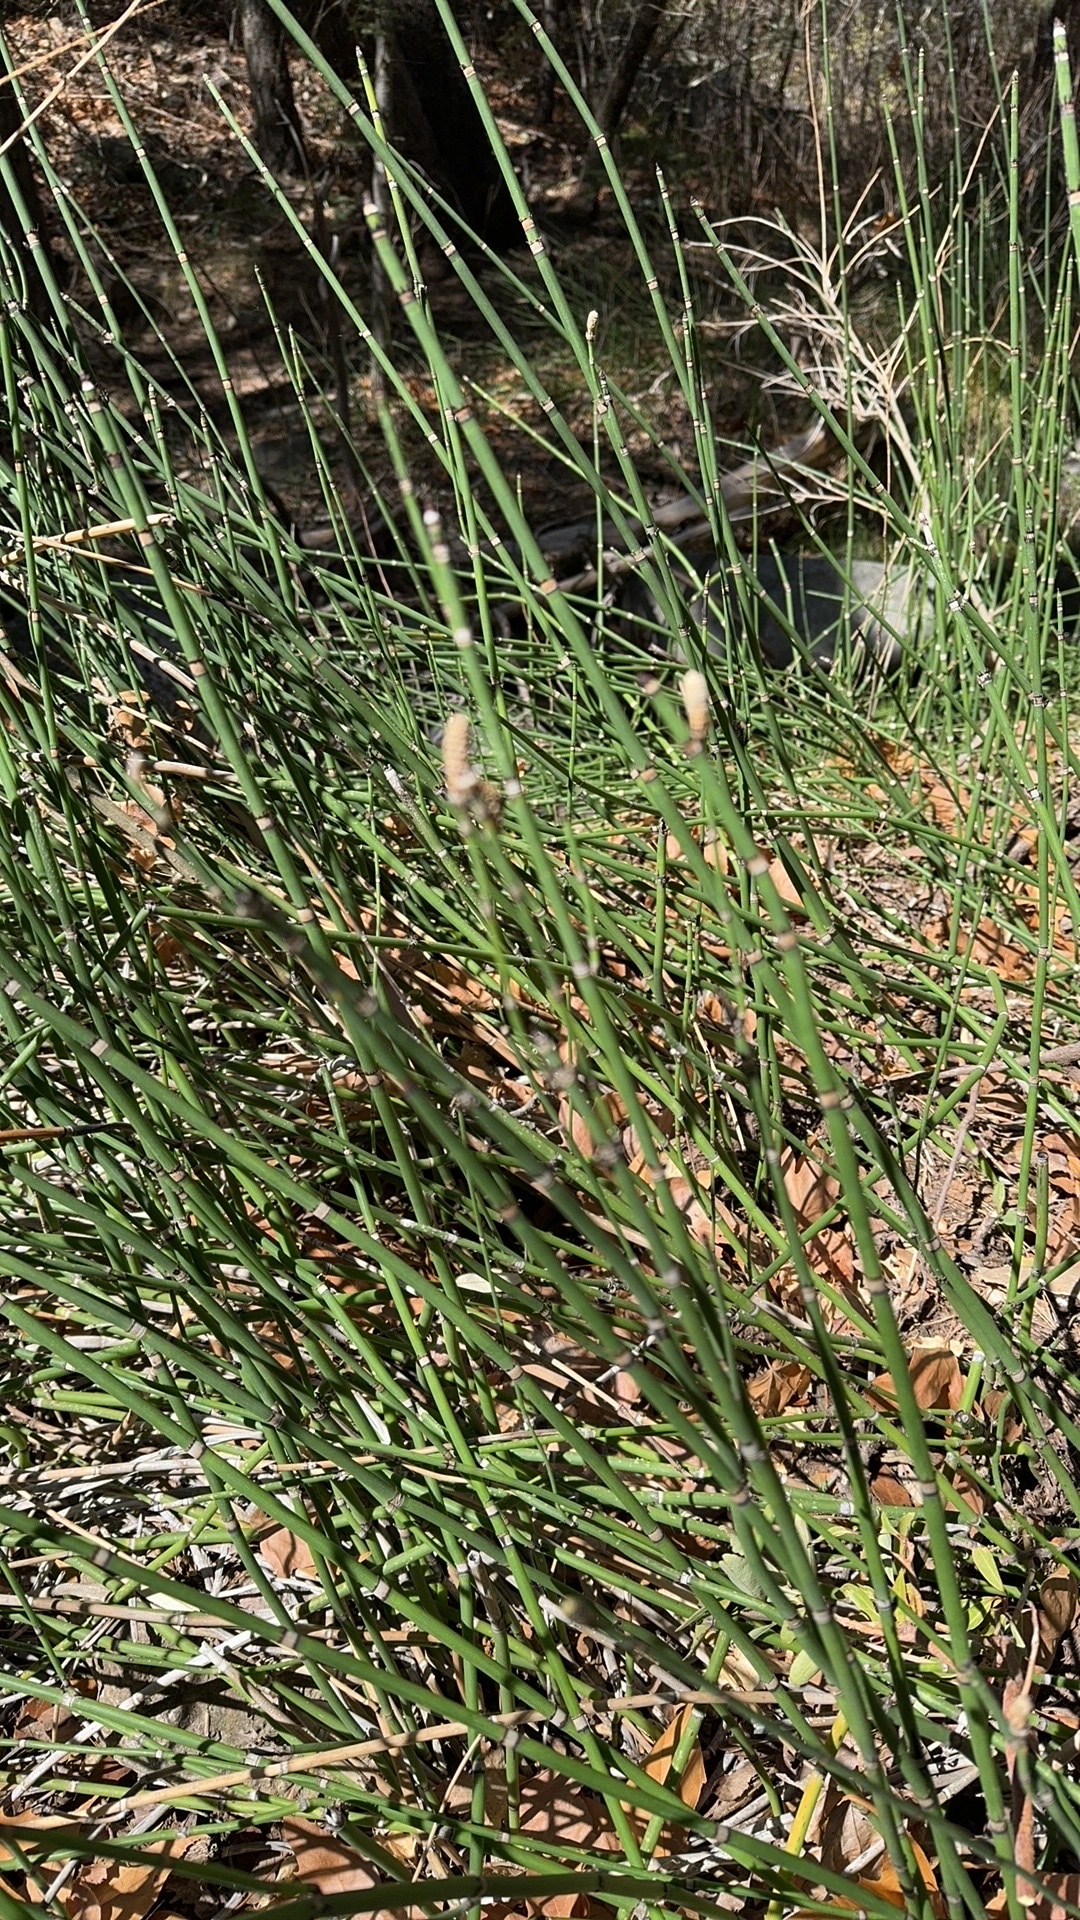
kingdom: Plantae
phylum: Tracheophyta
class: Polypodiopsida
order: Equisetales
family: Equisetaceae
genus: Equisetum
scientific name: Equisetum hyemale
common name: Rough horsetail
